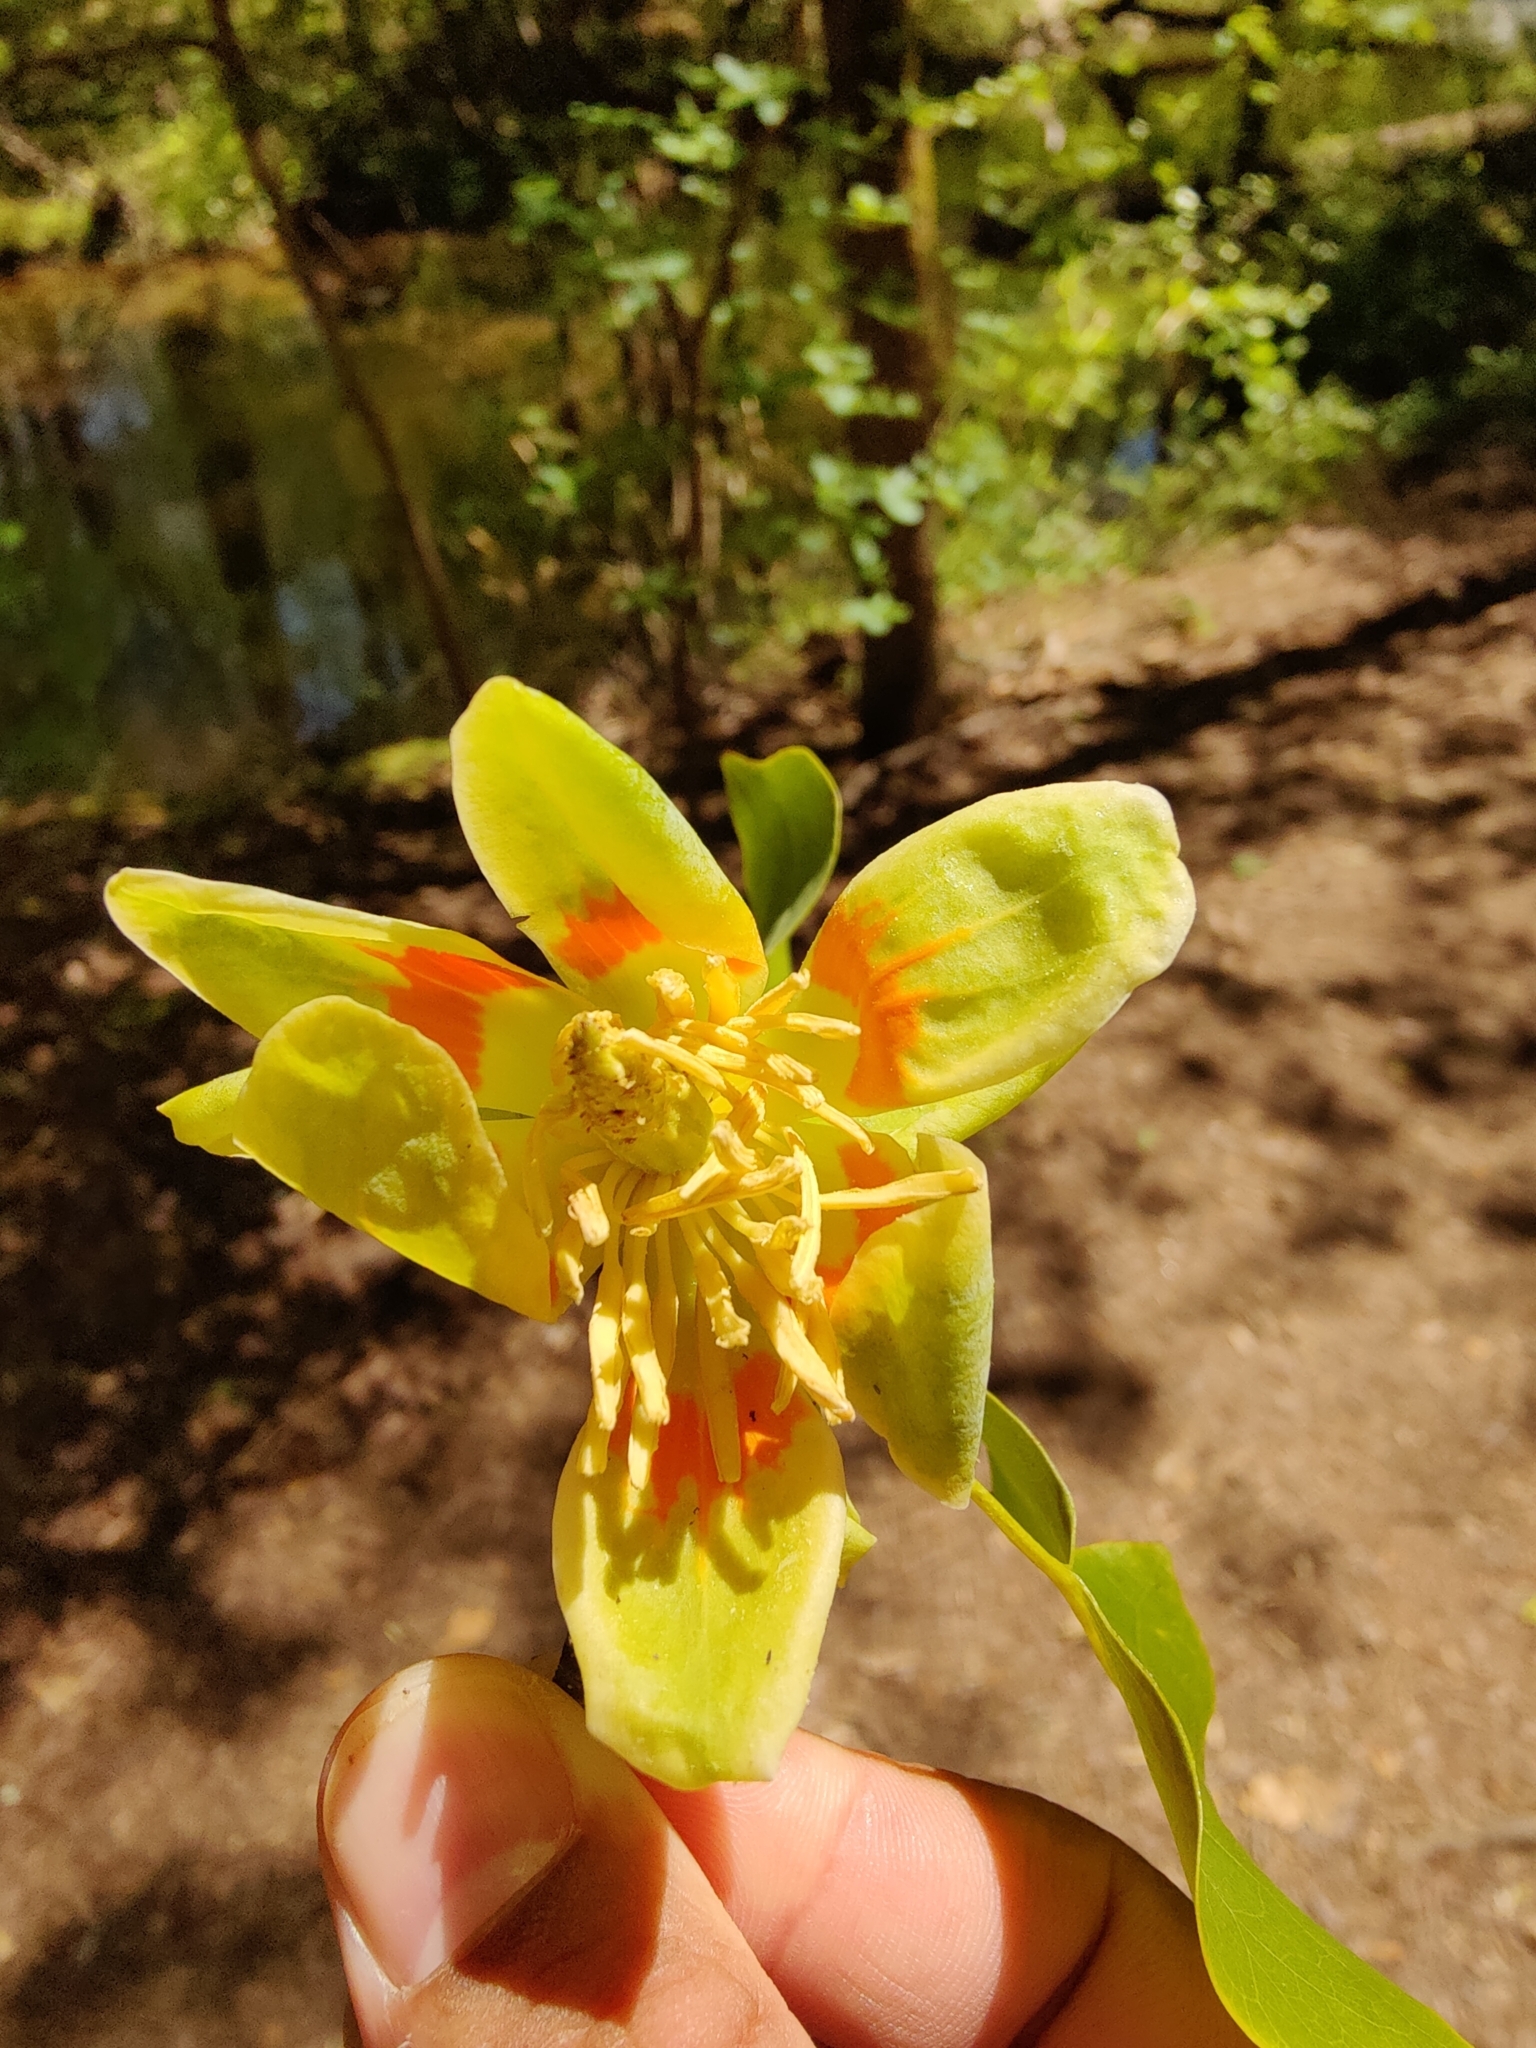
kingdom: Plantae
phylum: Tracheophyta
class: Magnoliopsida
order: Magnoliales
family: Magnoliaceae
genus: Liriodendron
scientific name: Liriodendron tulipifera
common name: Tulip tree
